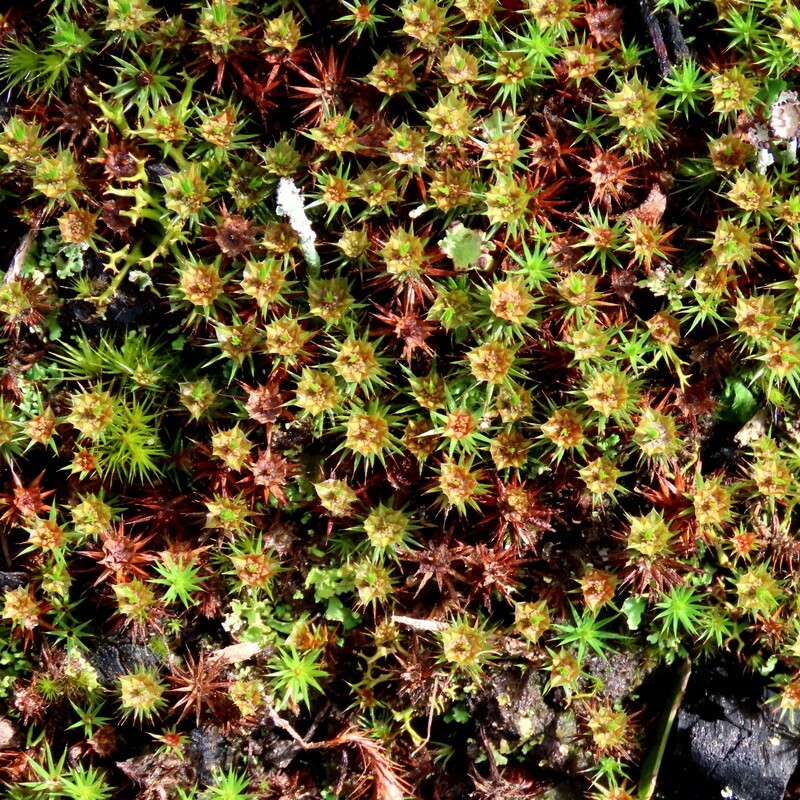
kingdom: Plantae
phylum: Bryophyta
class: Polytrichopsida
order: Polytrichales
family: Polytrichaceae
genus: Polytrichum
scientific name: Polytrichum juniperinum
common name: Juniper haircap moss
